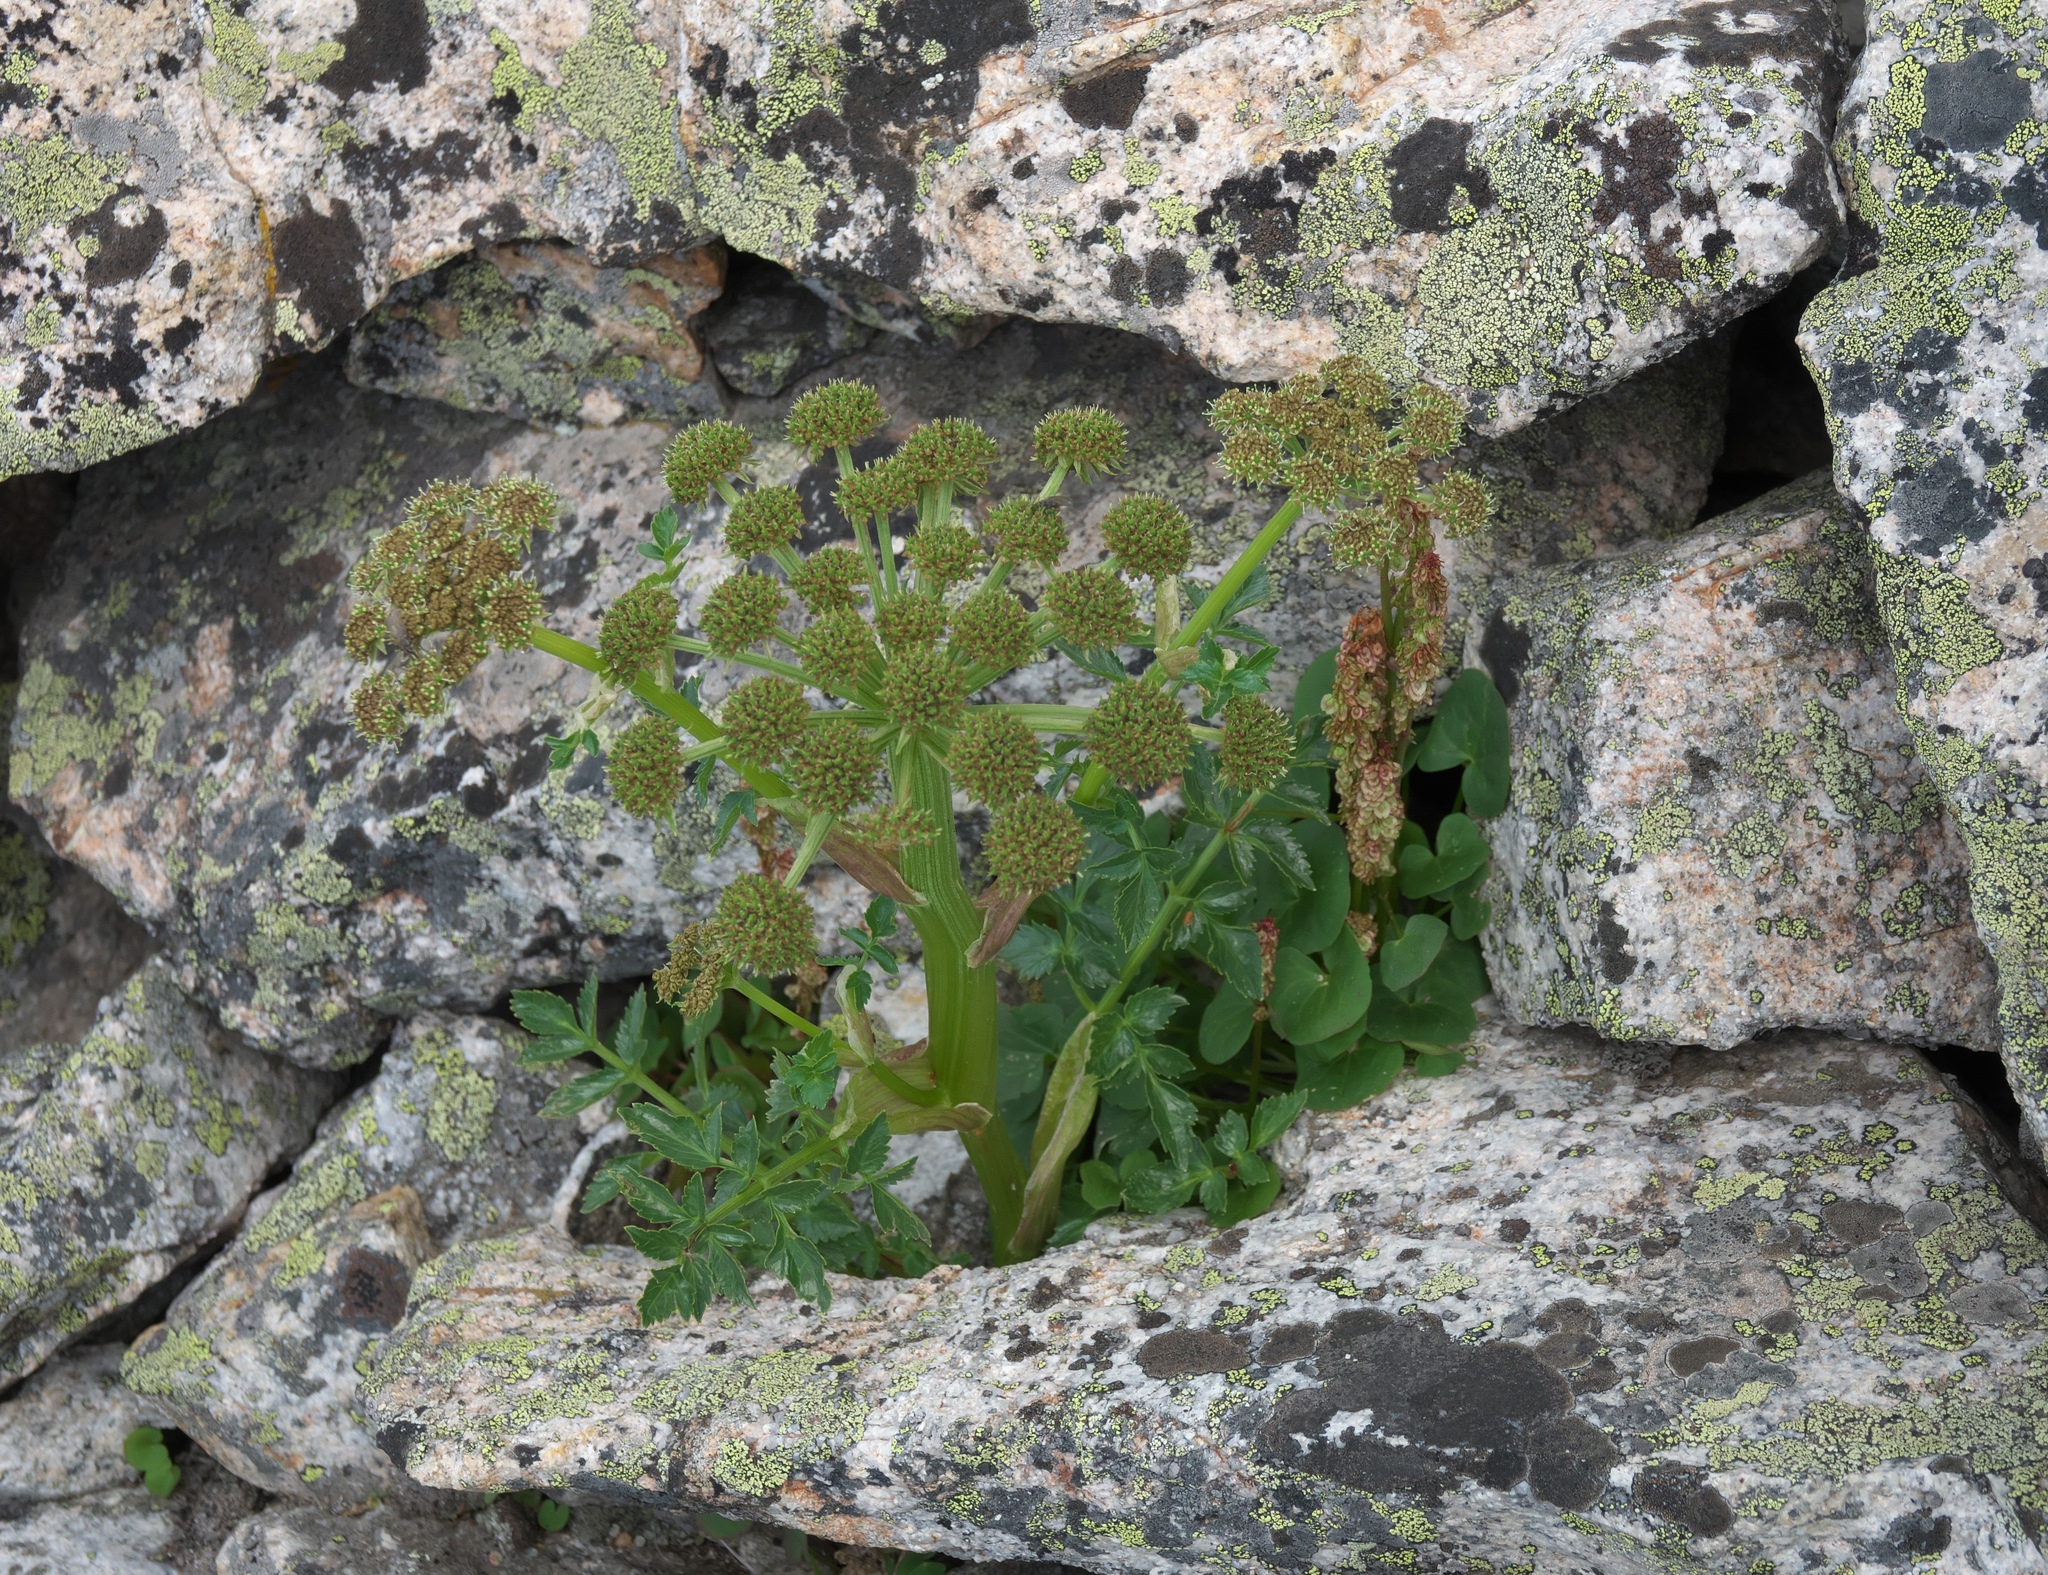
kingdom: Plantae
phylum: Tracheophyta
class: Magnoliopsida
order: Apiales
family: Apiaceae
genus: Angelica
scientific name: Angelica grayi
